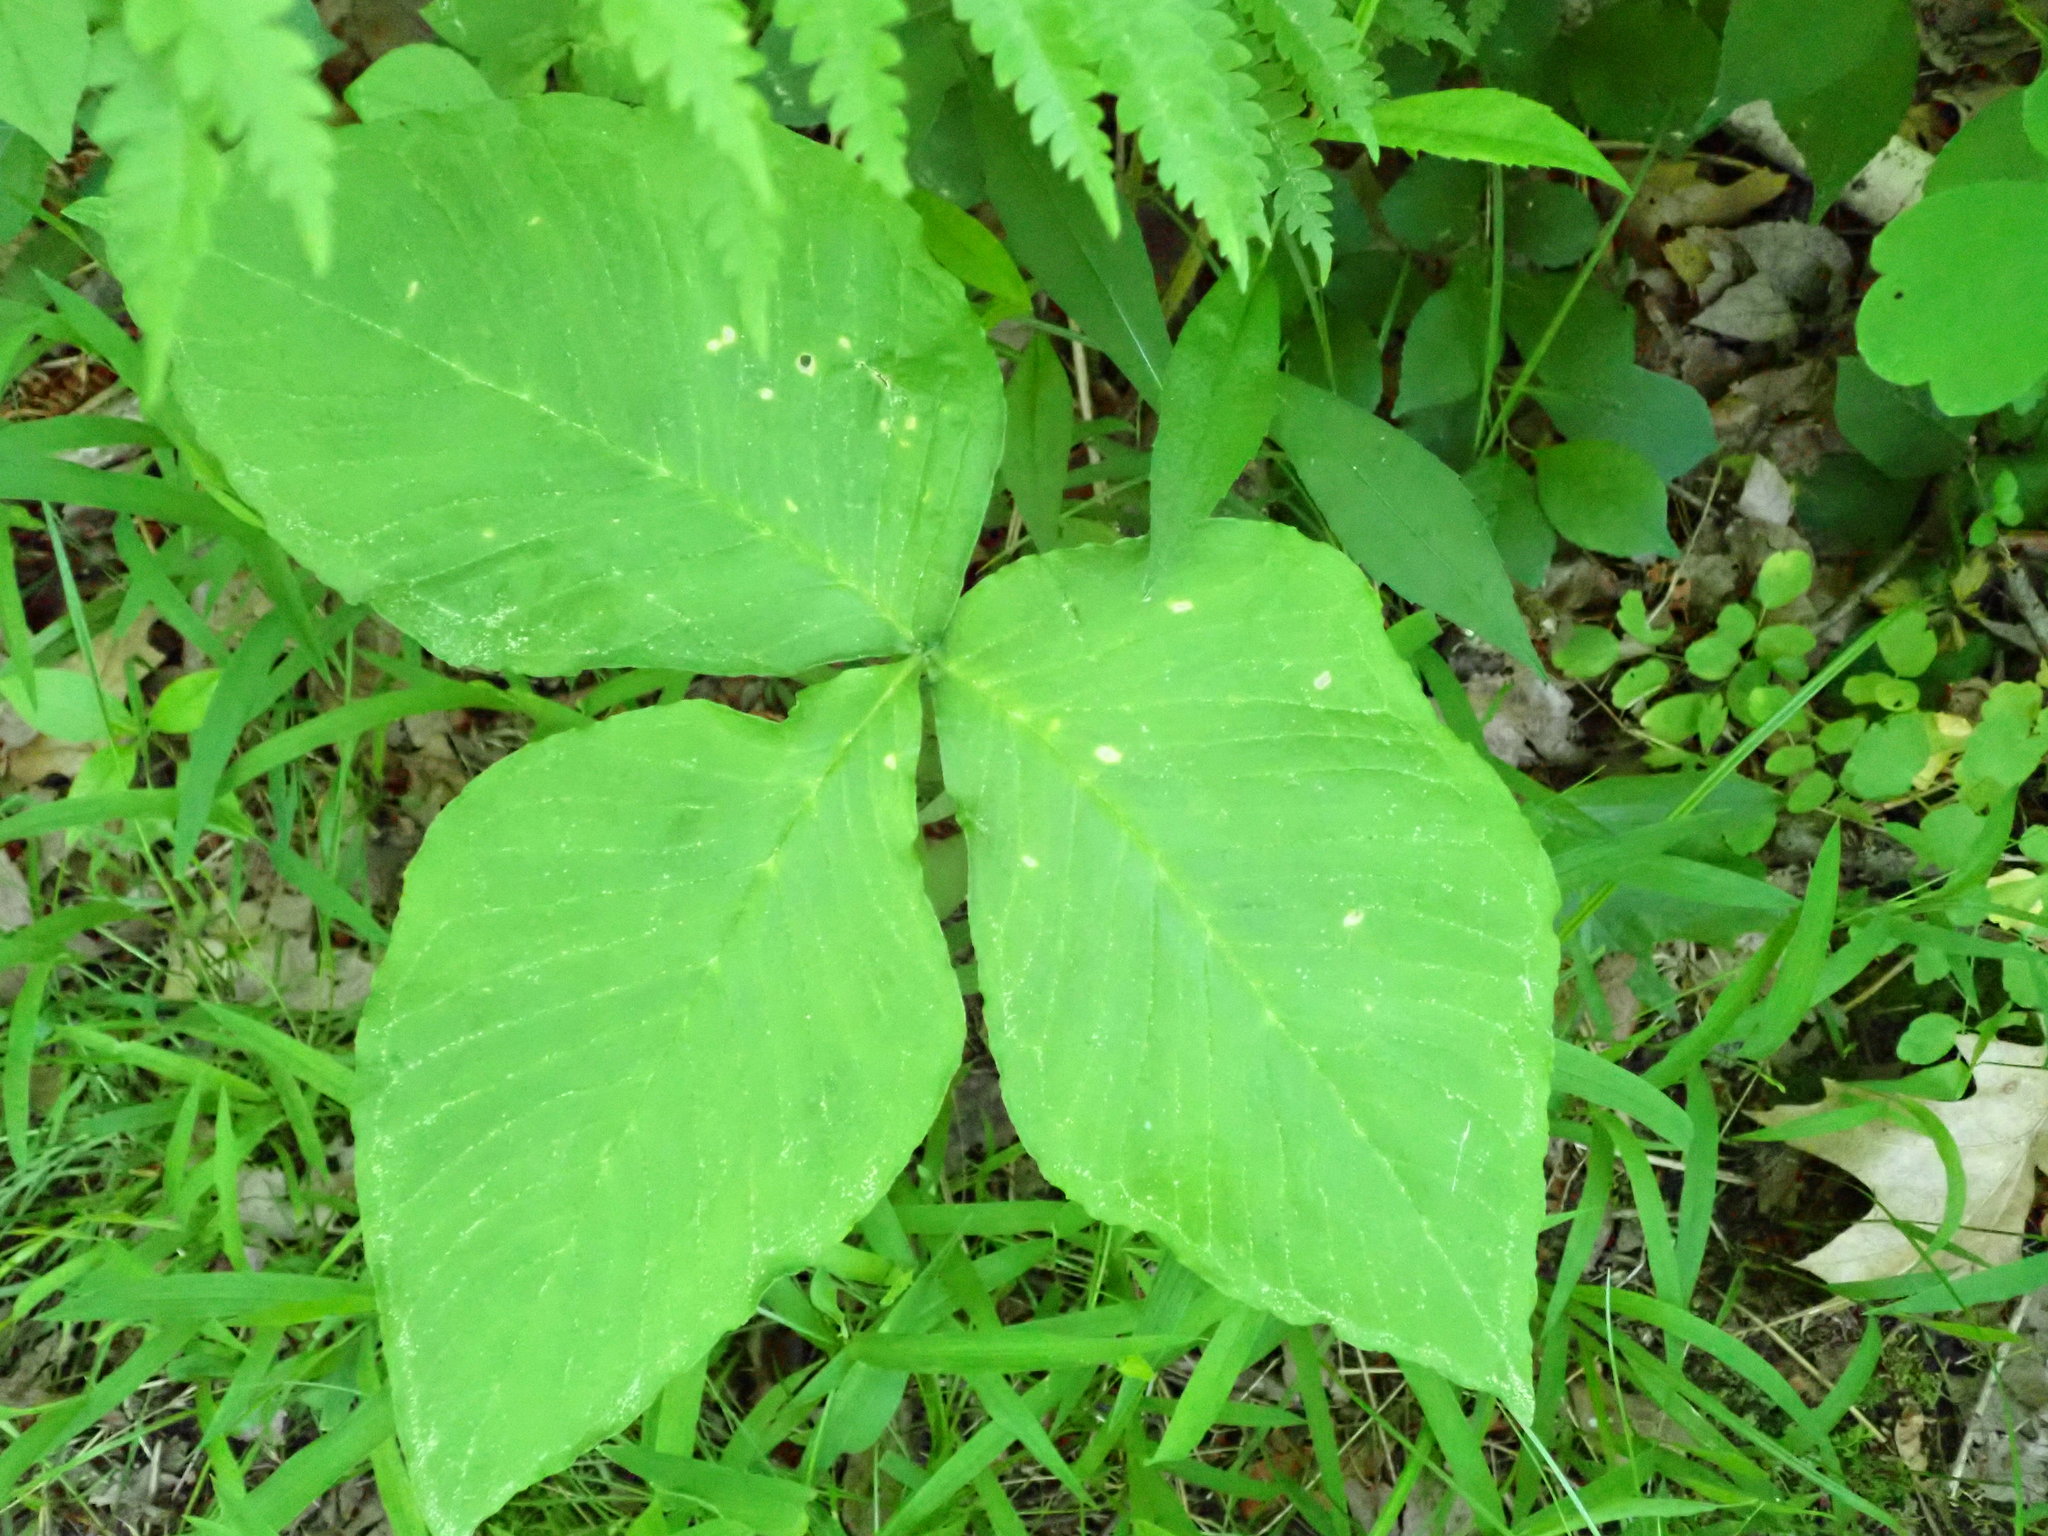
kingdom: Plantae
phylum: Tracheophyta
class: Liliopsida
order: Alismatales
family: Araceae
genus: Arisaema
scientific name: Arisaema triphyllum
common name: Jack-in-the-pulpit
